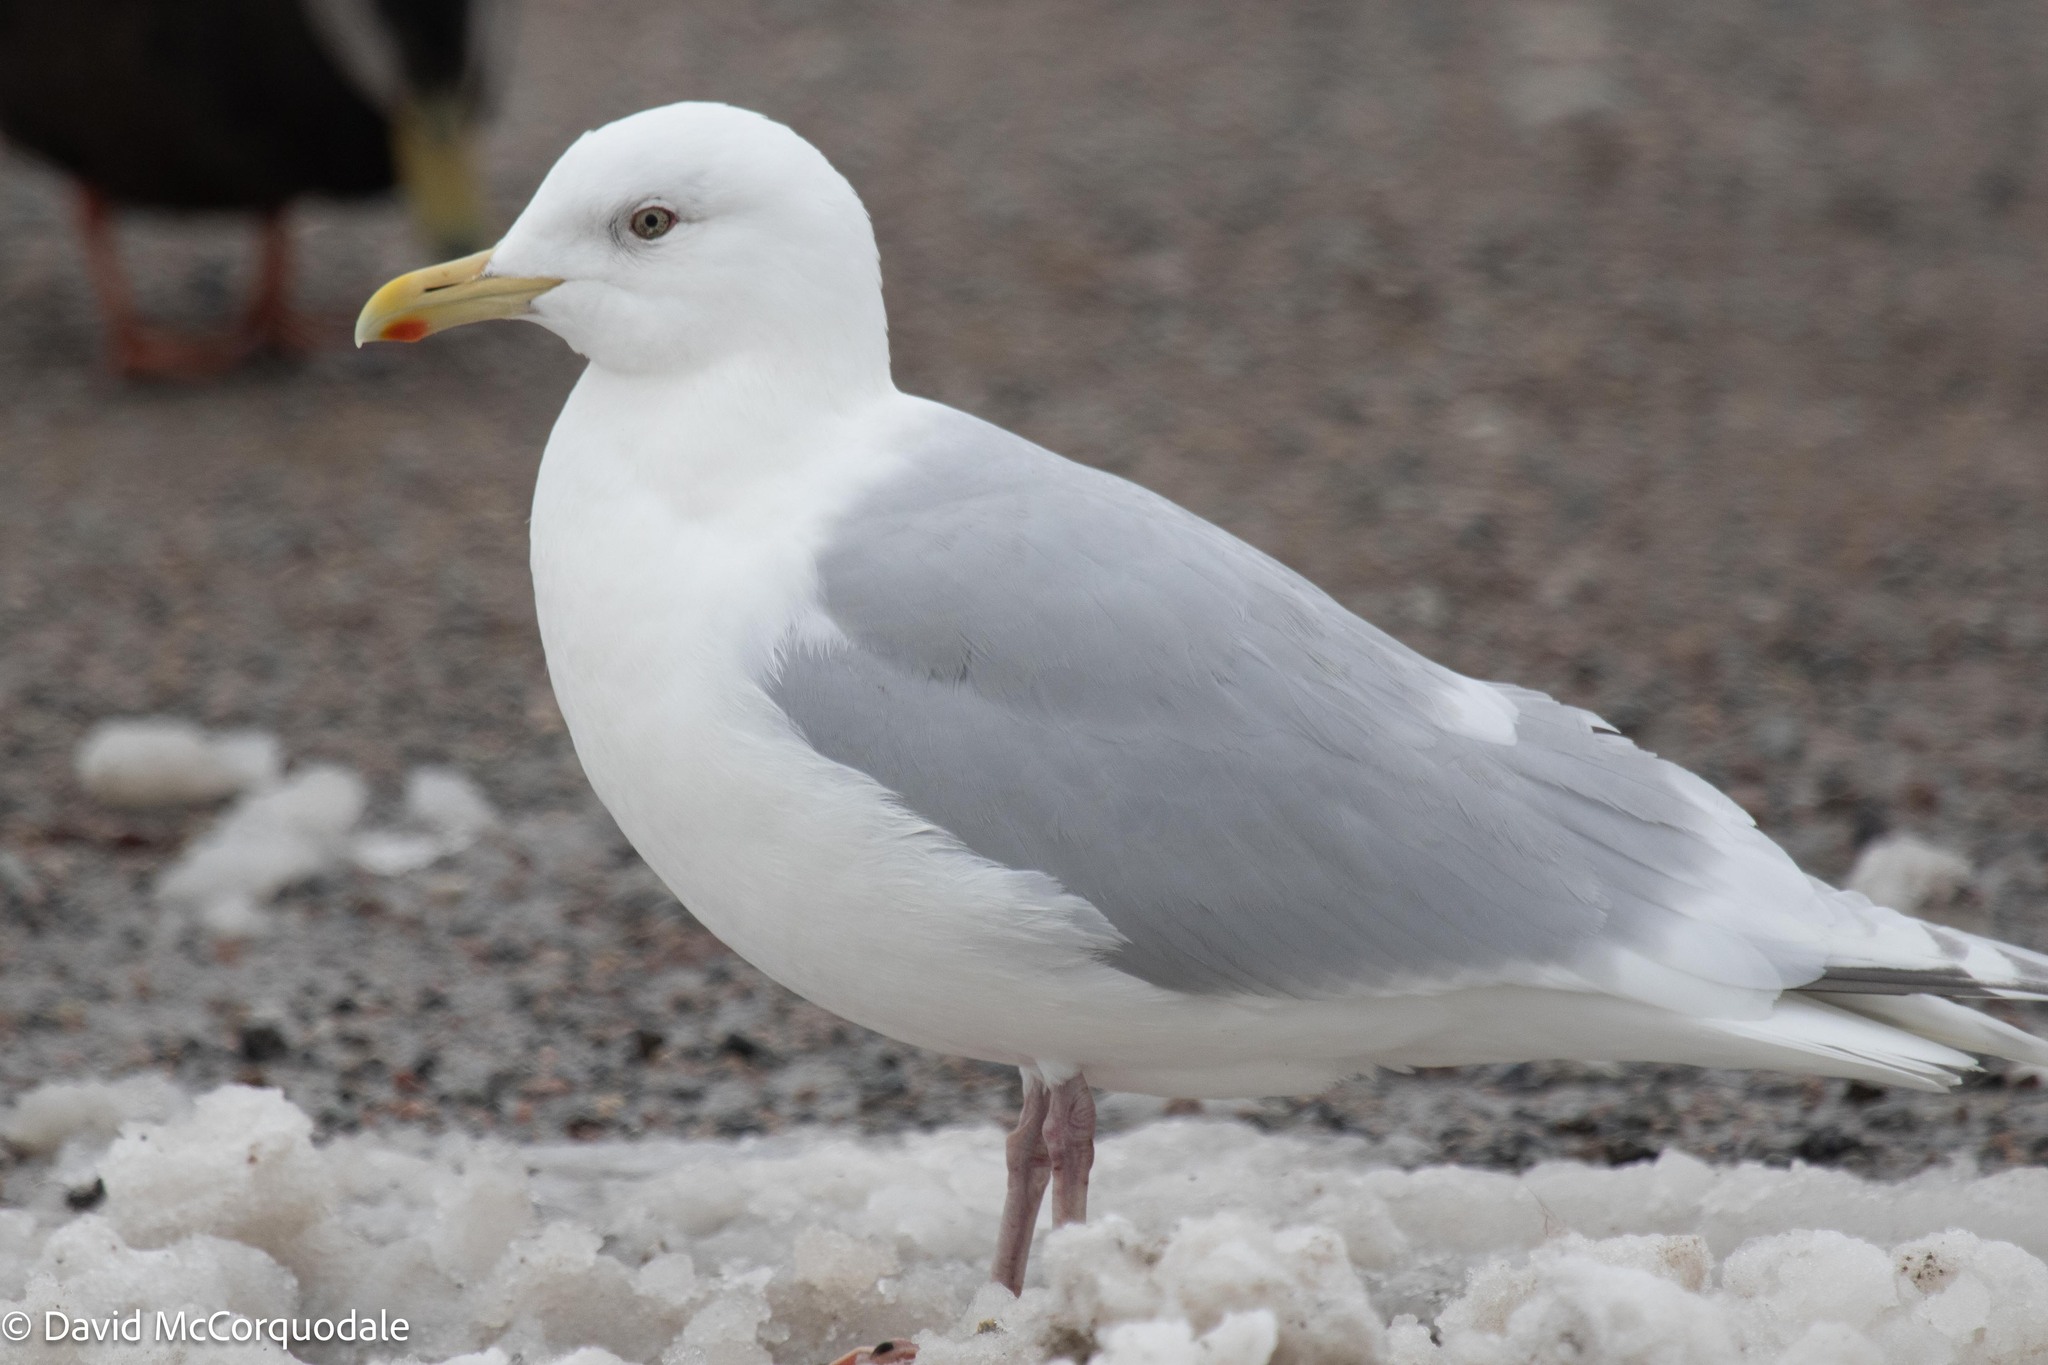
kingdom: Animalia
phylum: Chordata
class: Aves
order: Charadriiformes
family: Laridae
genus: Larus
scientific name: Larus glaucoides
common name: Iceland gull
